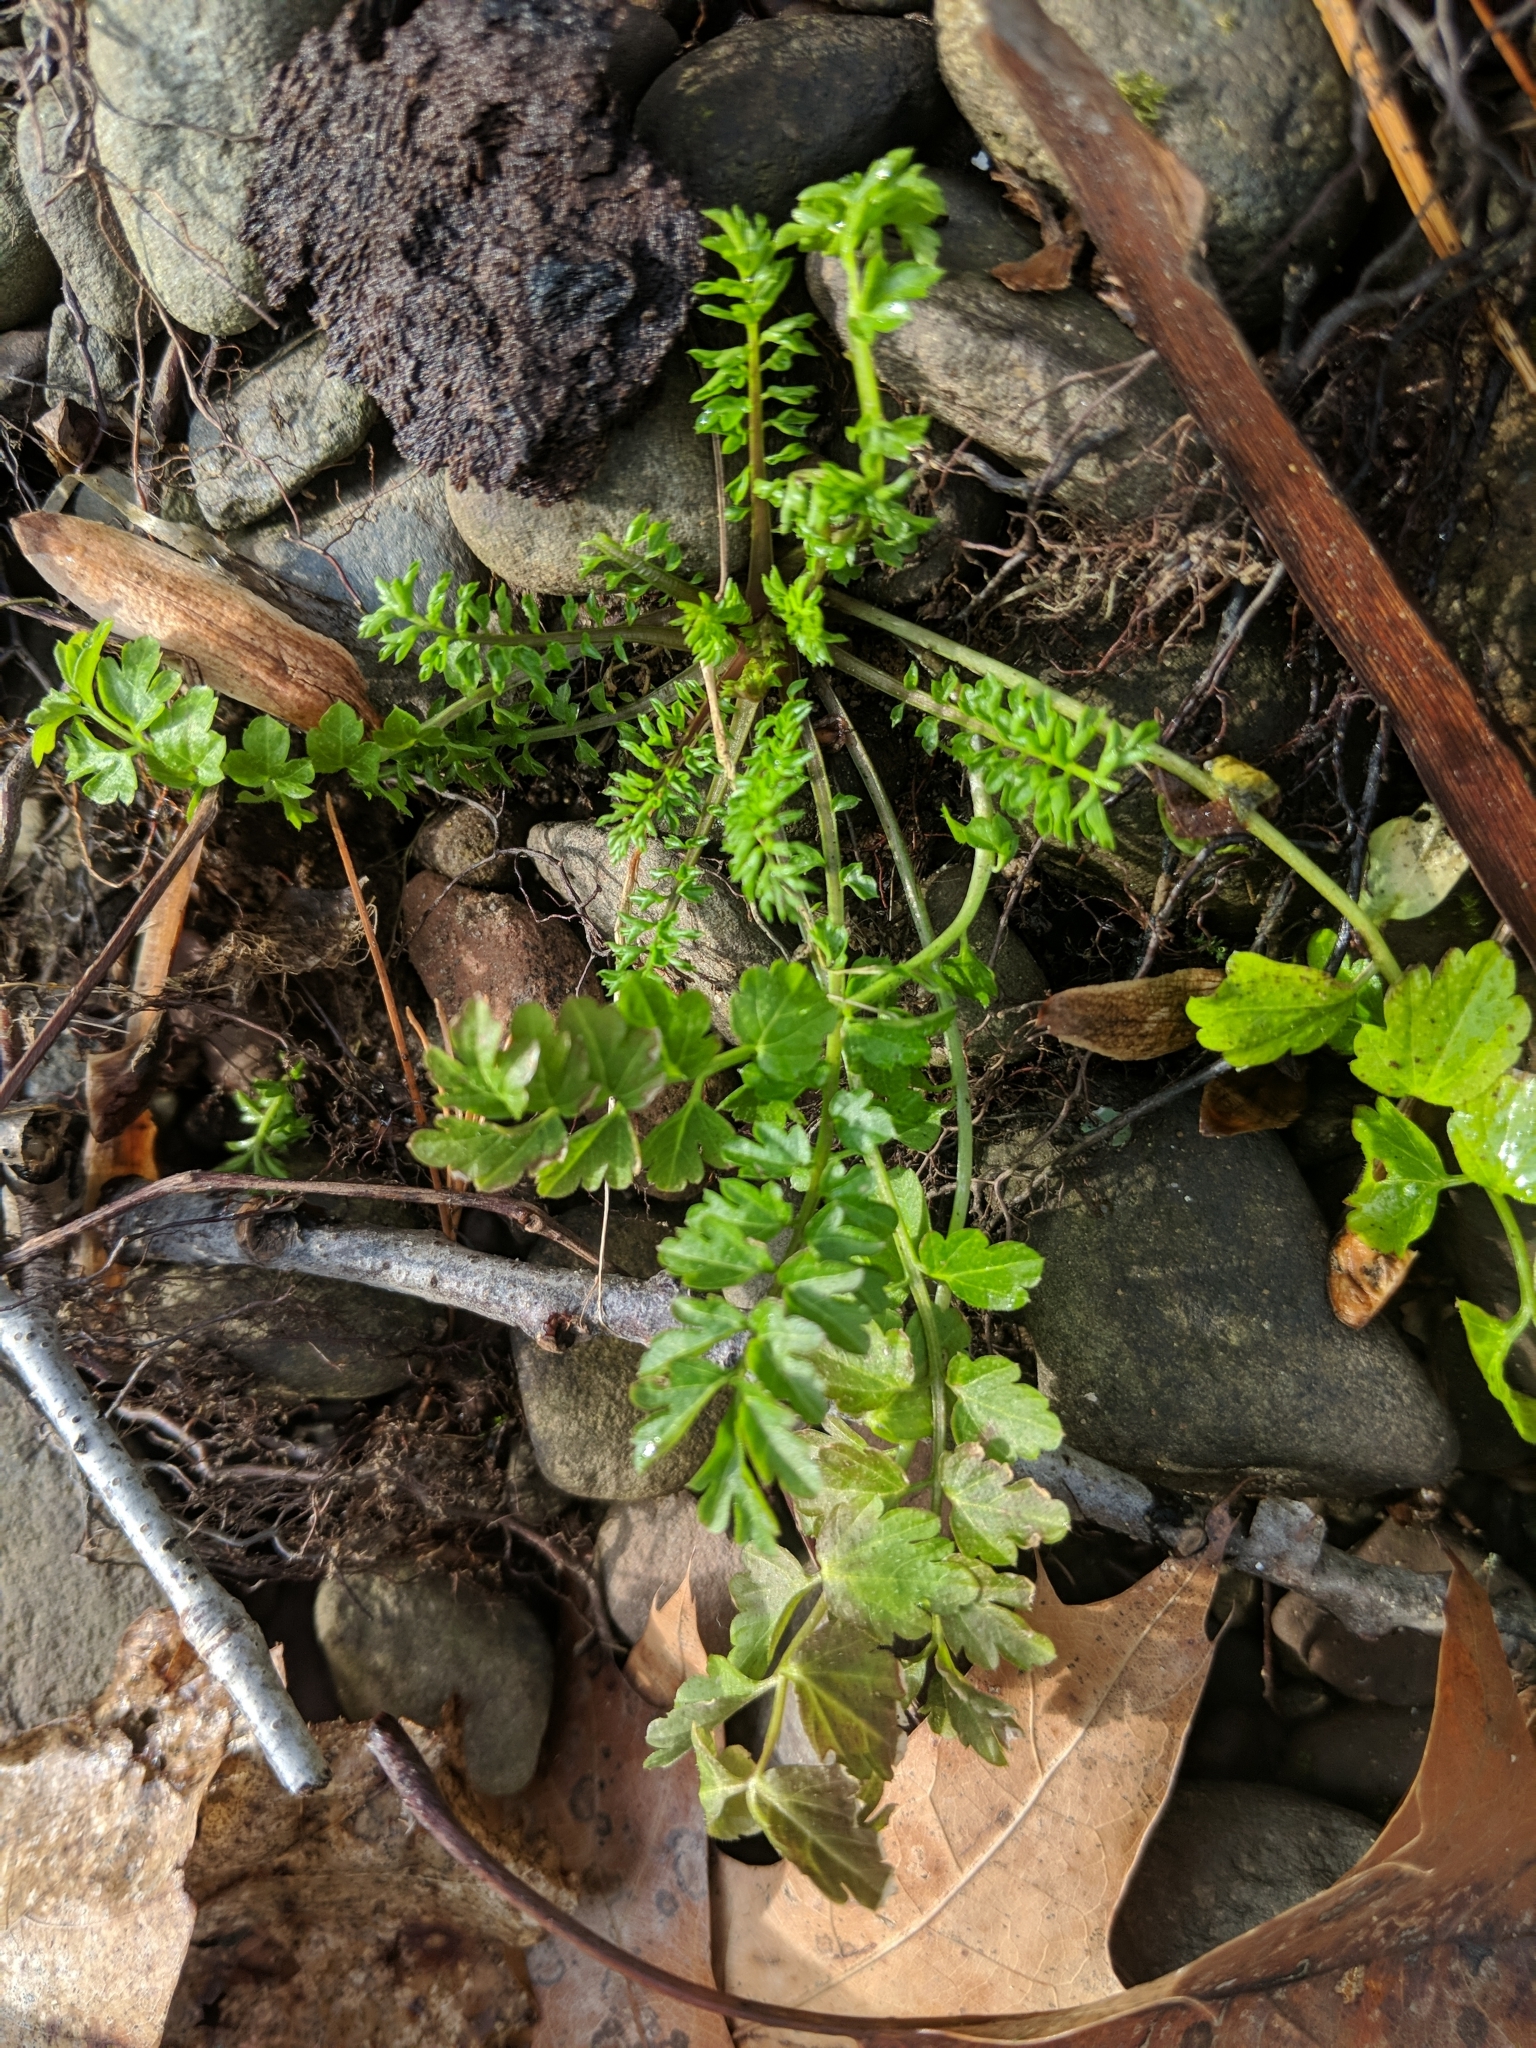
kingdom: Plantae
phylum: Tracheophyta
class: Magnoliopsida
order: Brassicales
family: Brassicaceae
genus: Cardamine
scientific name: Cardamine impatiens
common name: Narrow-leaved bitter-cress
